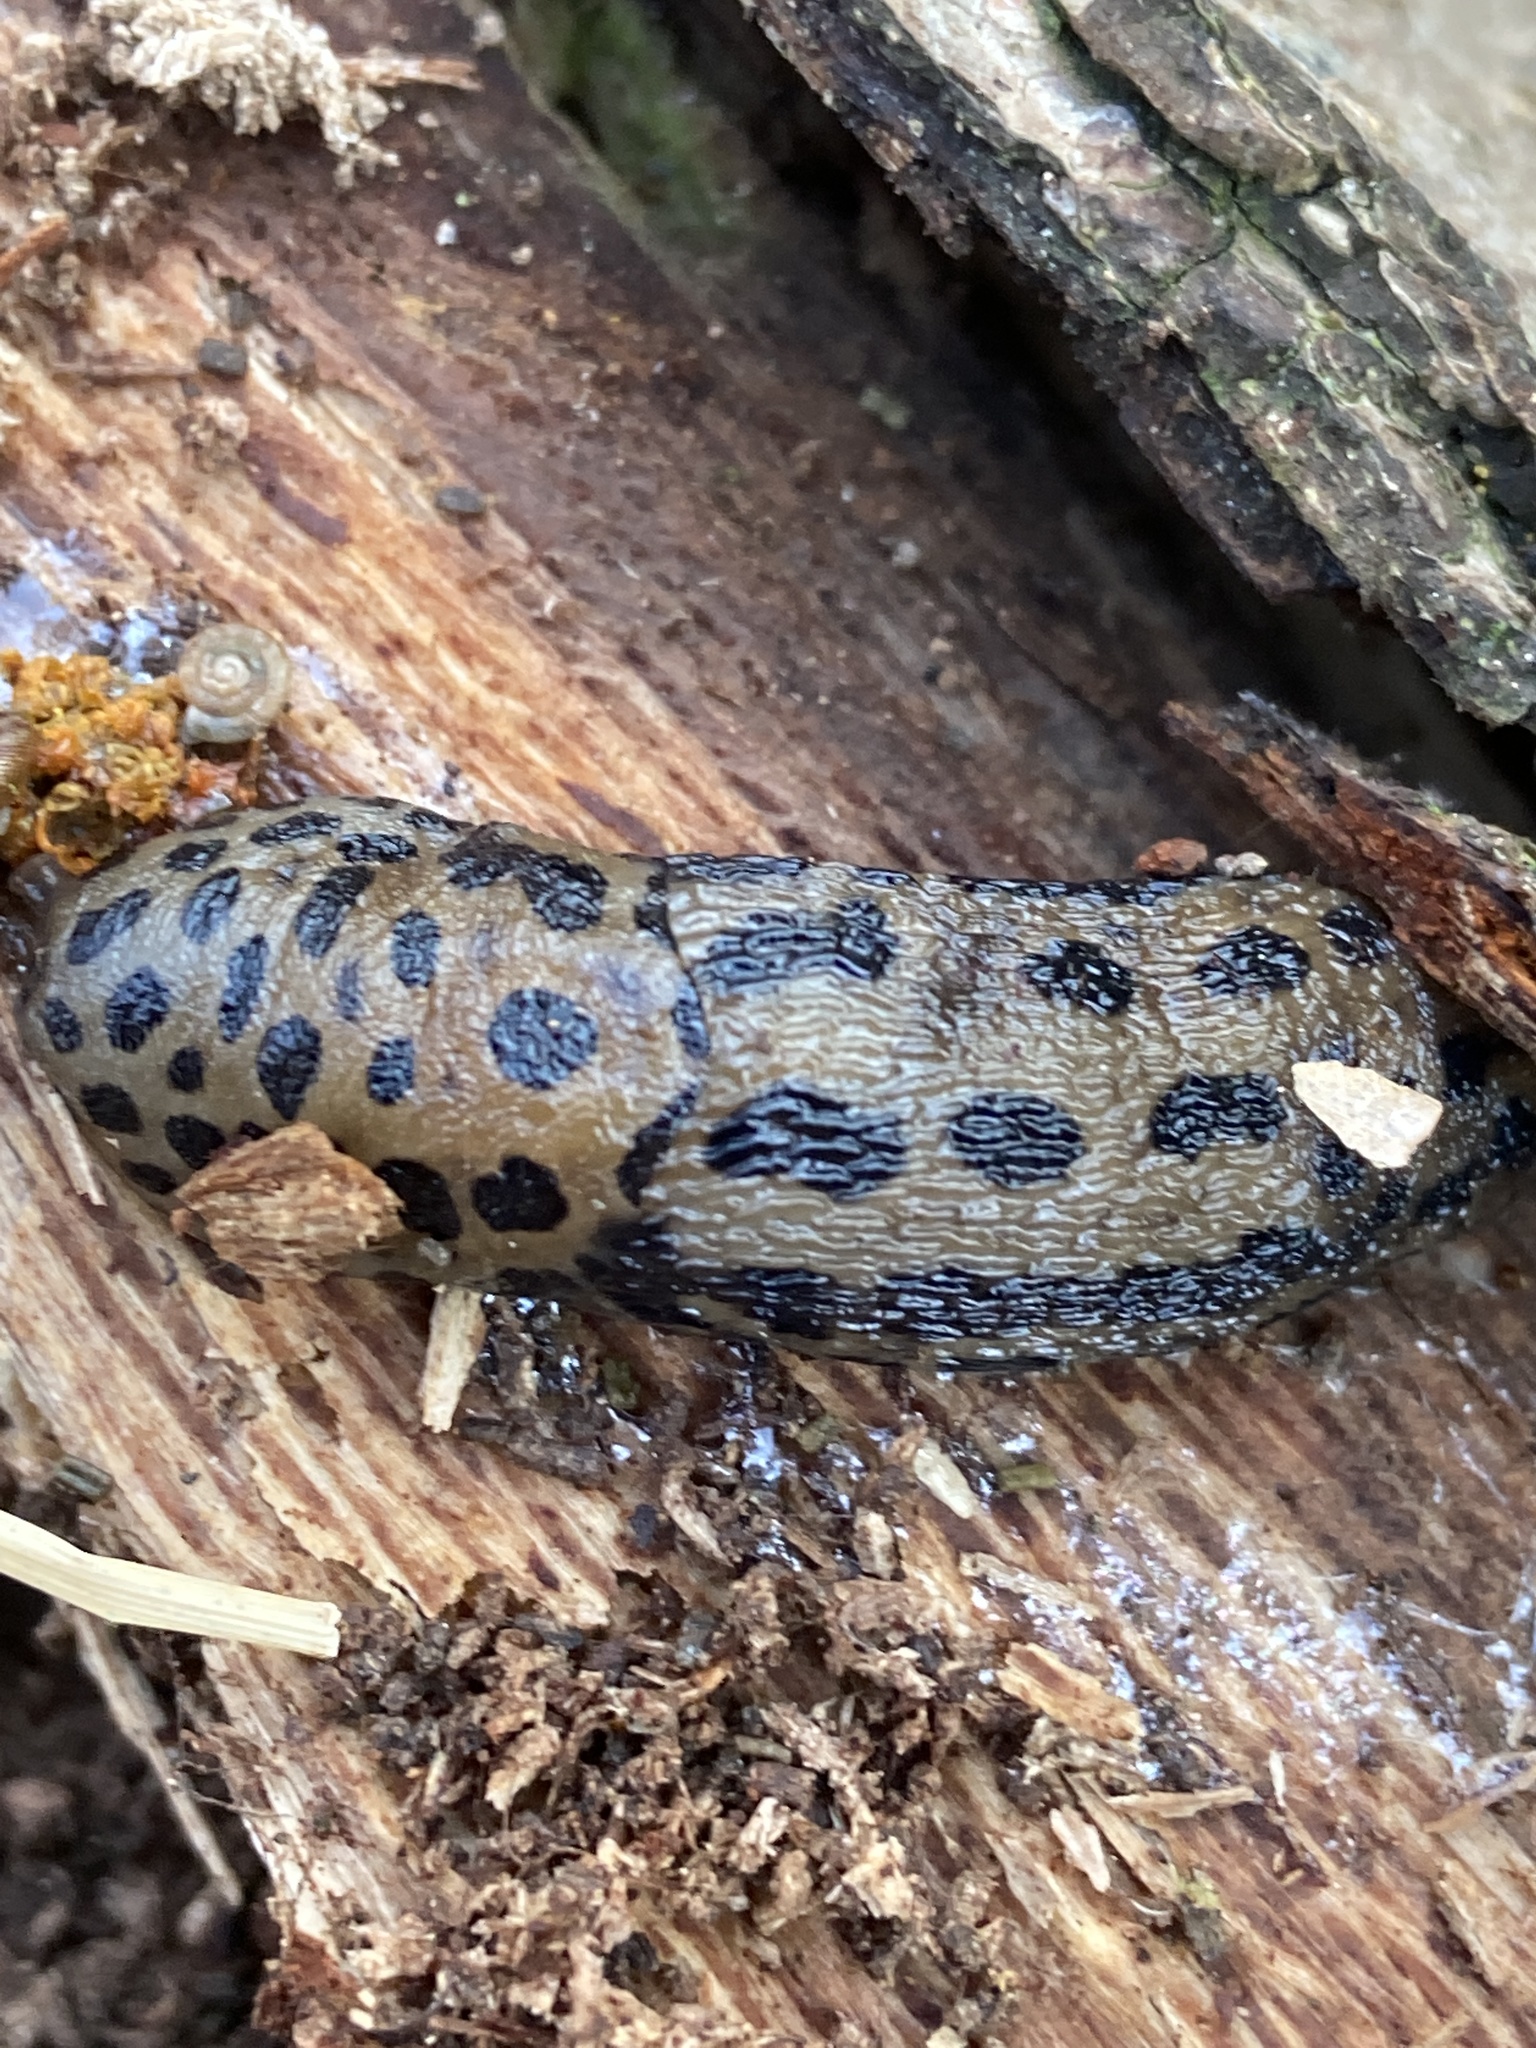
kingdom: Animalia
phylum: Mollusca
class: Gastropoda
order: Stylommatophora
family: Limacidae
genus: Limax
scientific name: Limax maximus
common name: Great grey slug
